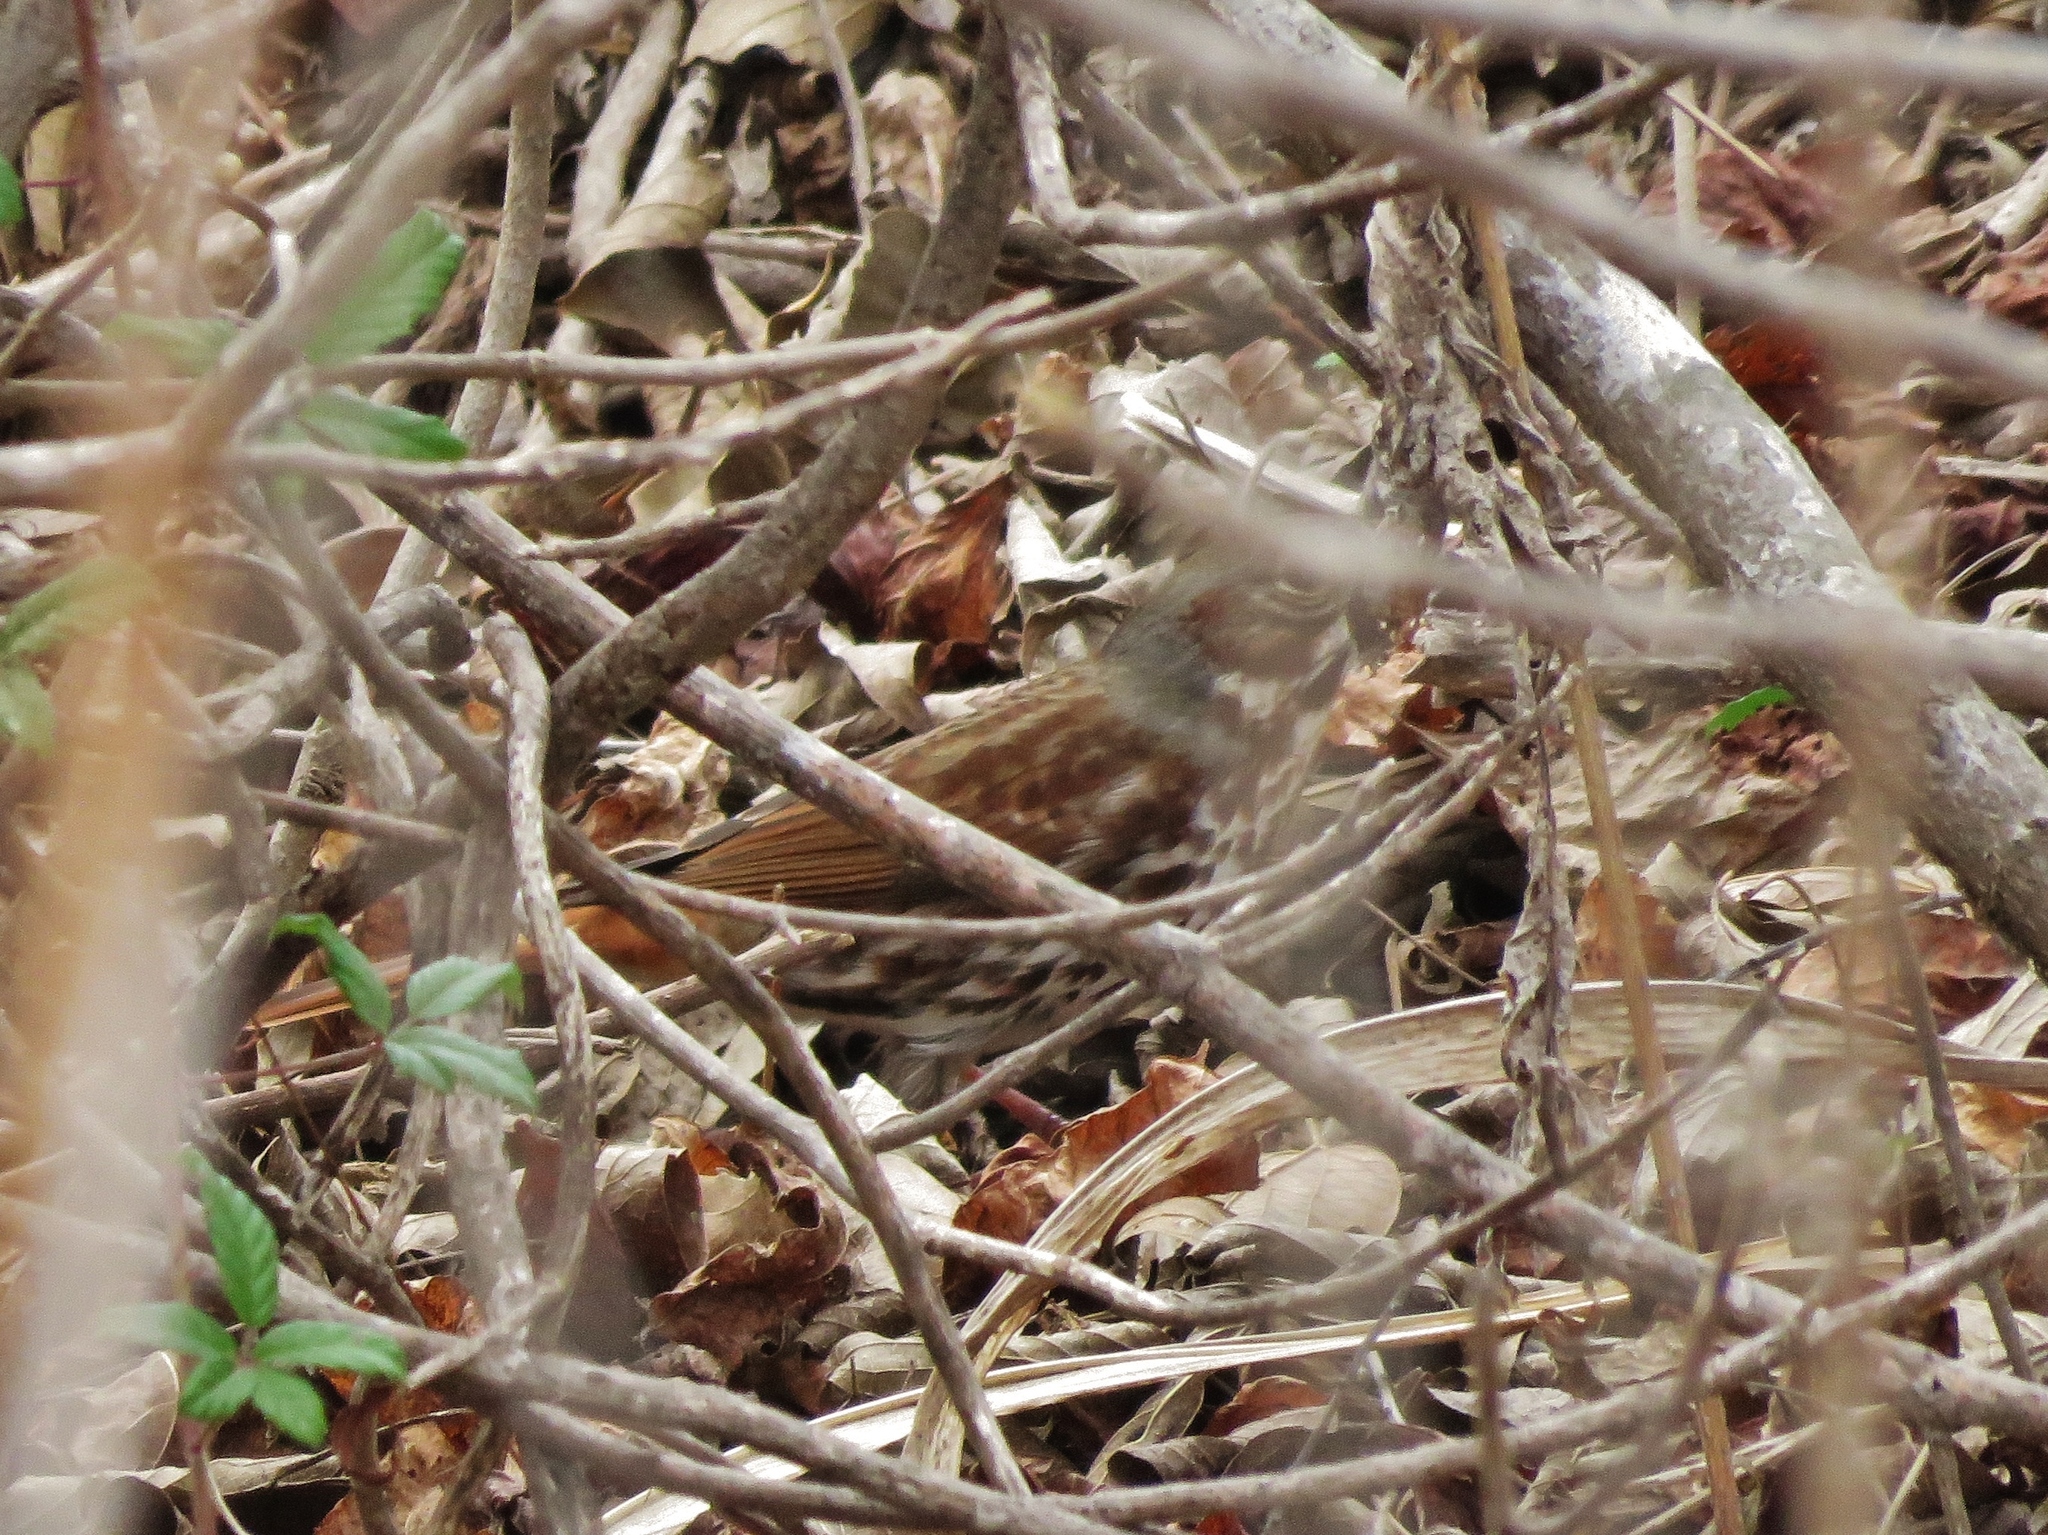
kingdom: Animalia
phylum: Chordata
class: Aves
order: Passeriformes
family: Passerellidae
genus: Passerella
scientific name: Passerella iliaca
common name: Fox sparrow
